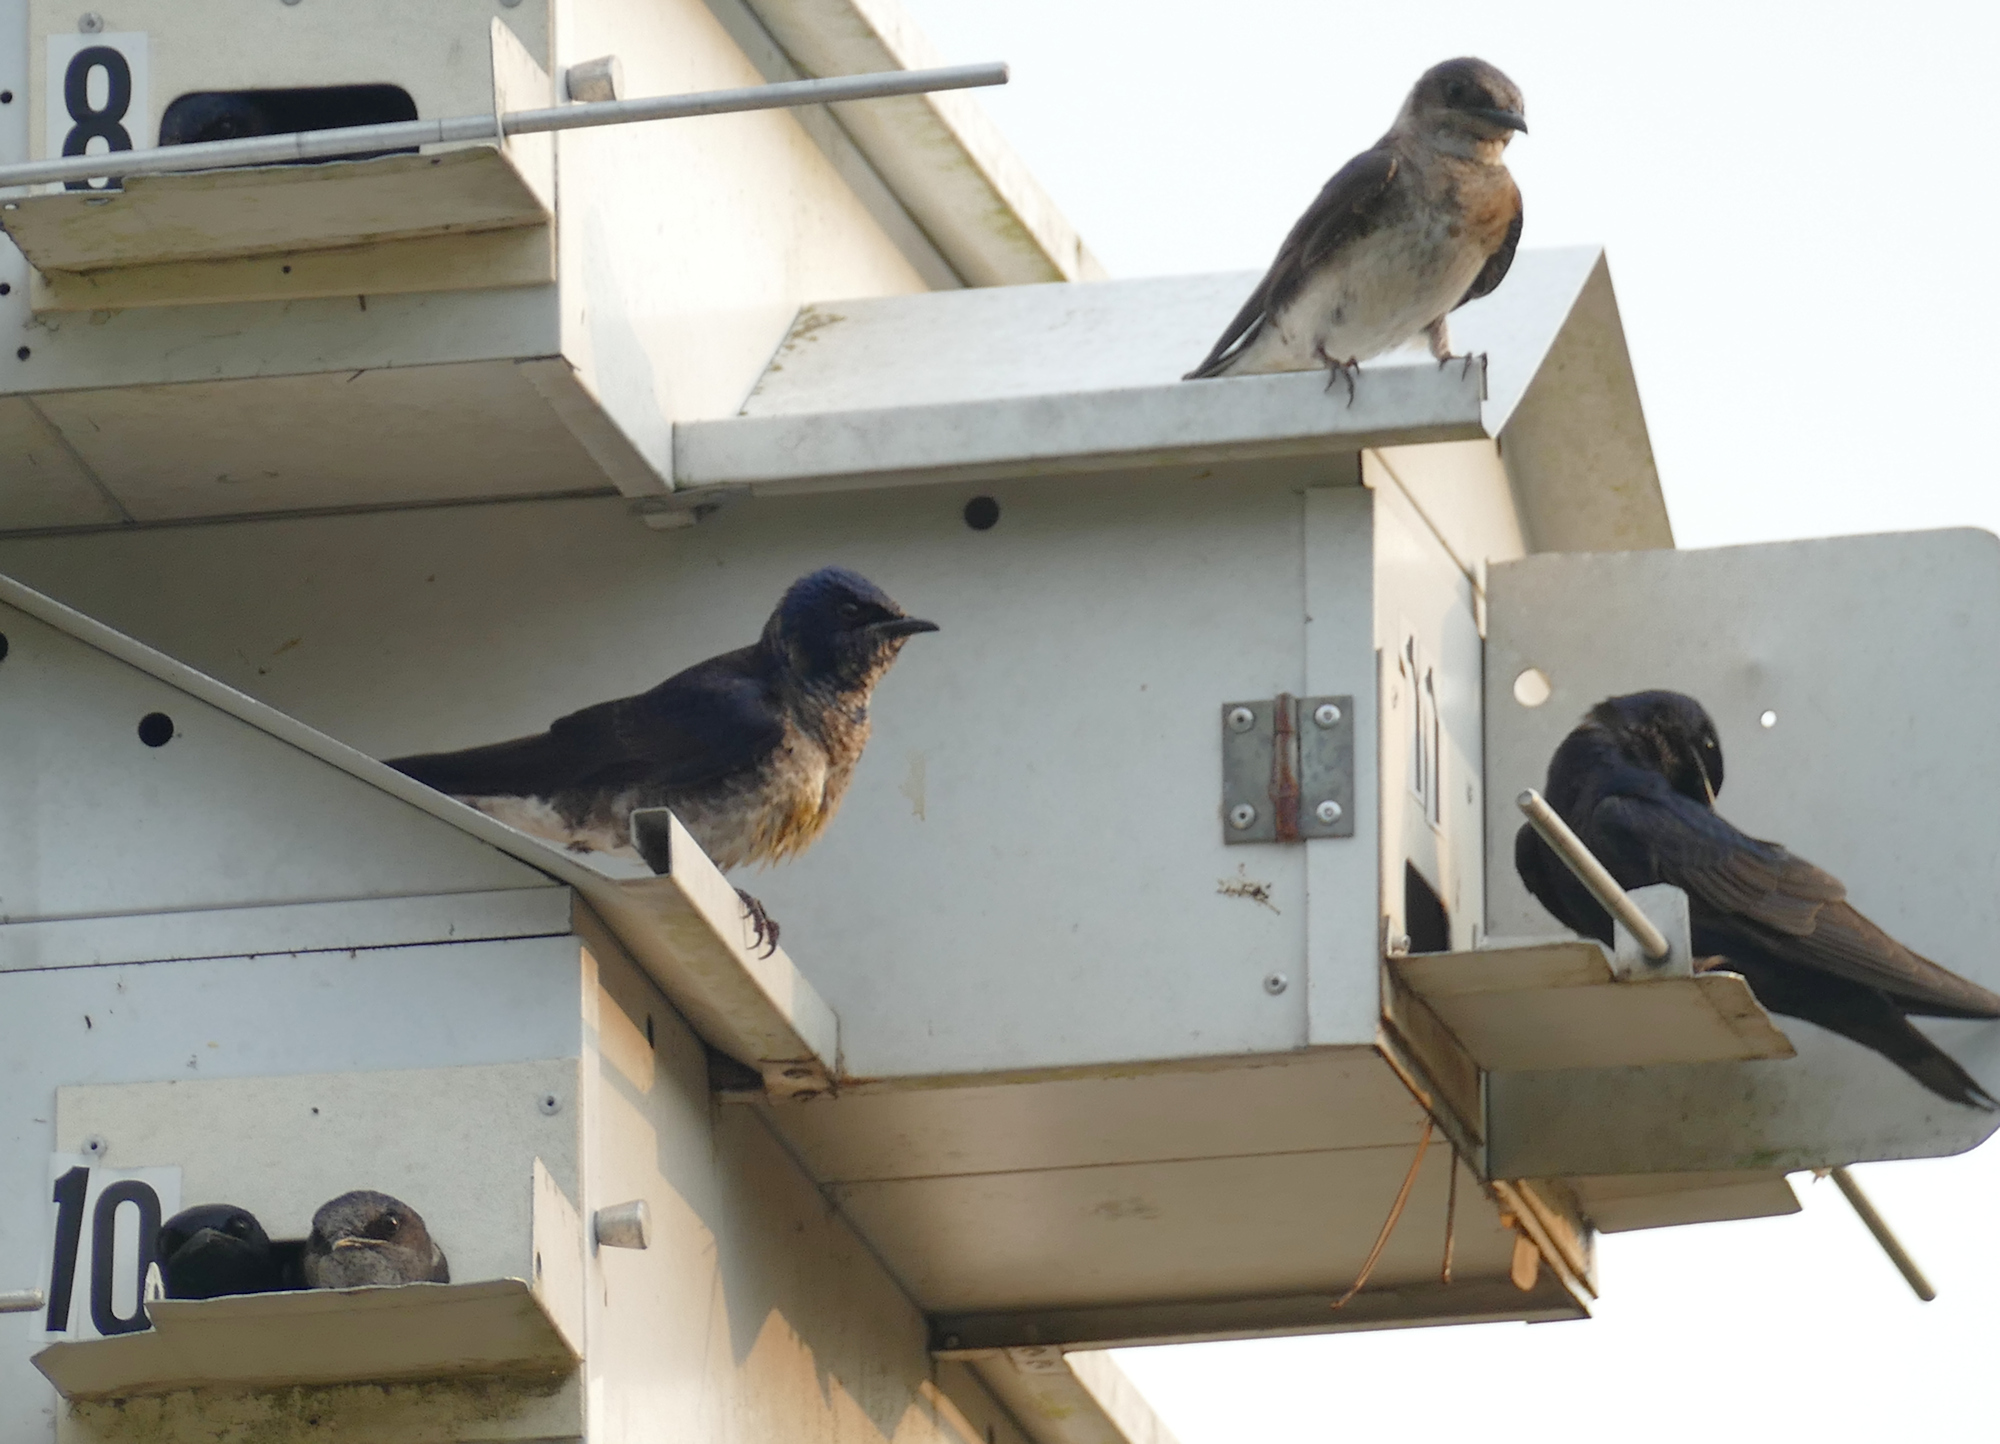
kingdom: Animalia
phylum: Chordata
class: Aves
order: Passeriformes
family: Hirundinidae
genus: Progne
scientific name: Progne subis
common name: Purple martin
